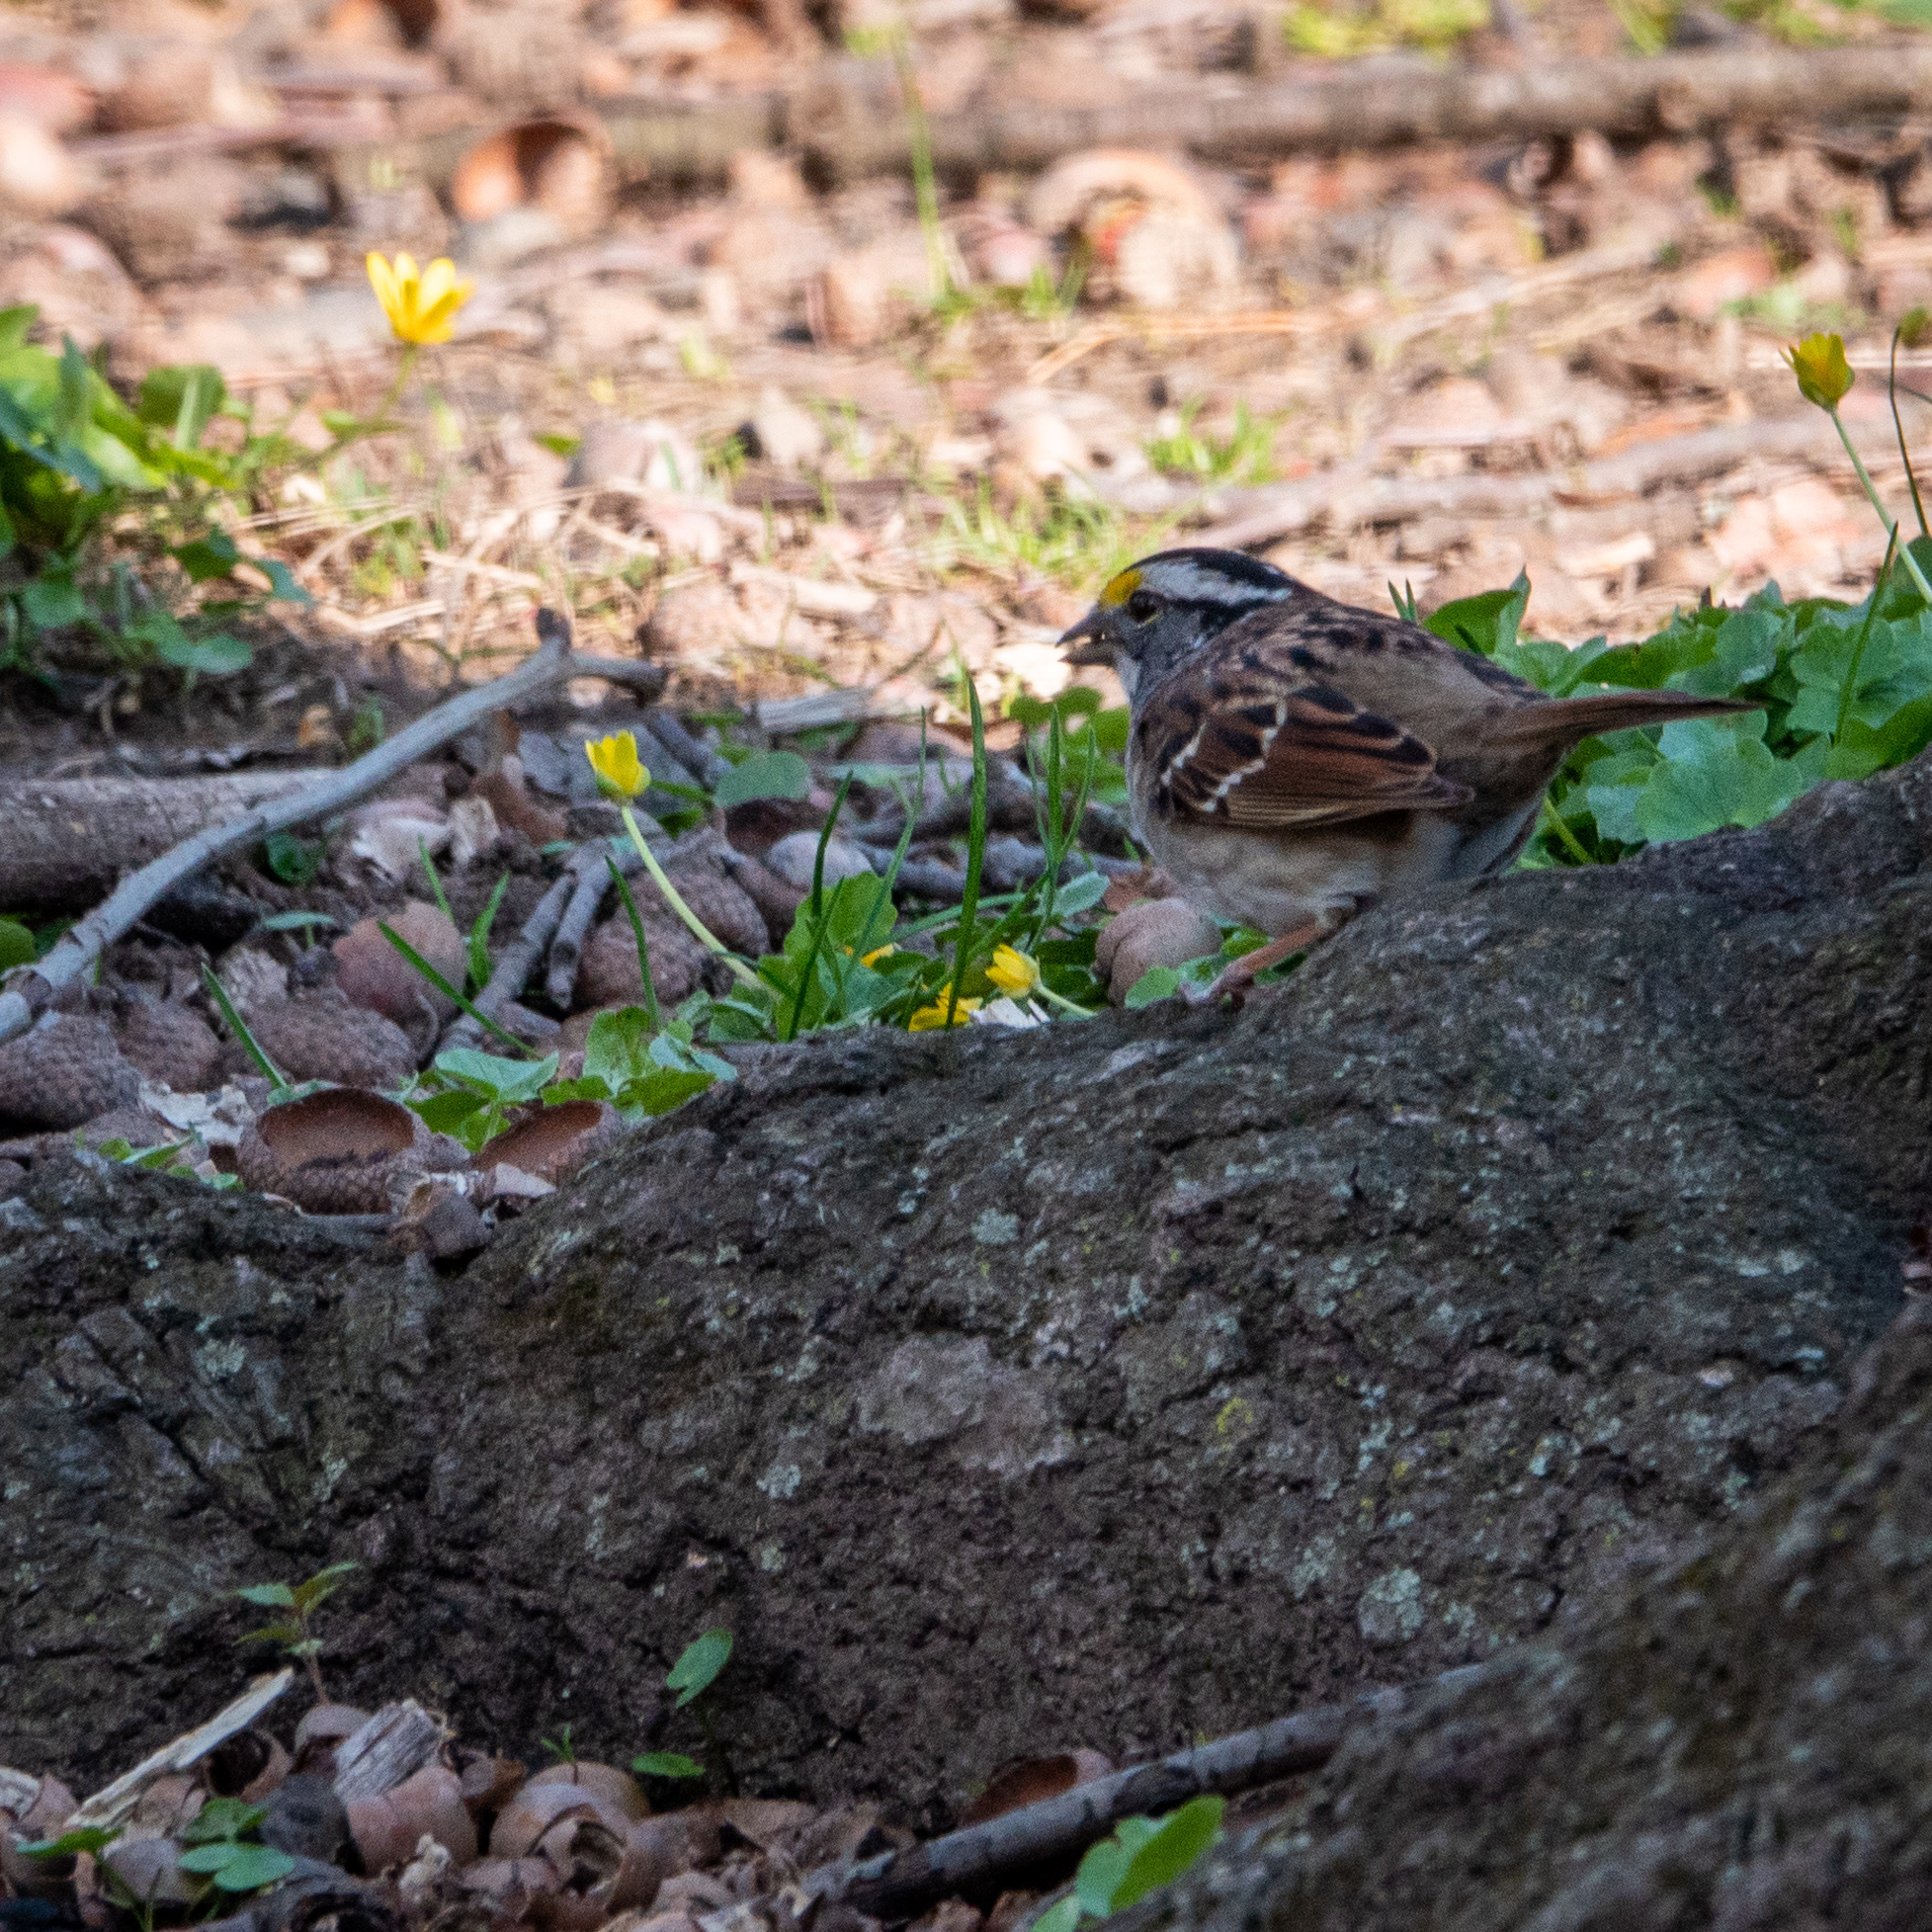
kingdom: Animalia
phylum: Chordata
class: Aves
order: Passeriformes
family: Passerellidae
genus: Zonotrichia
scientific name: Zonotrichia albicollis
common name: White-throated sparrow
